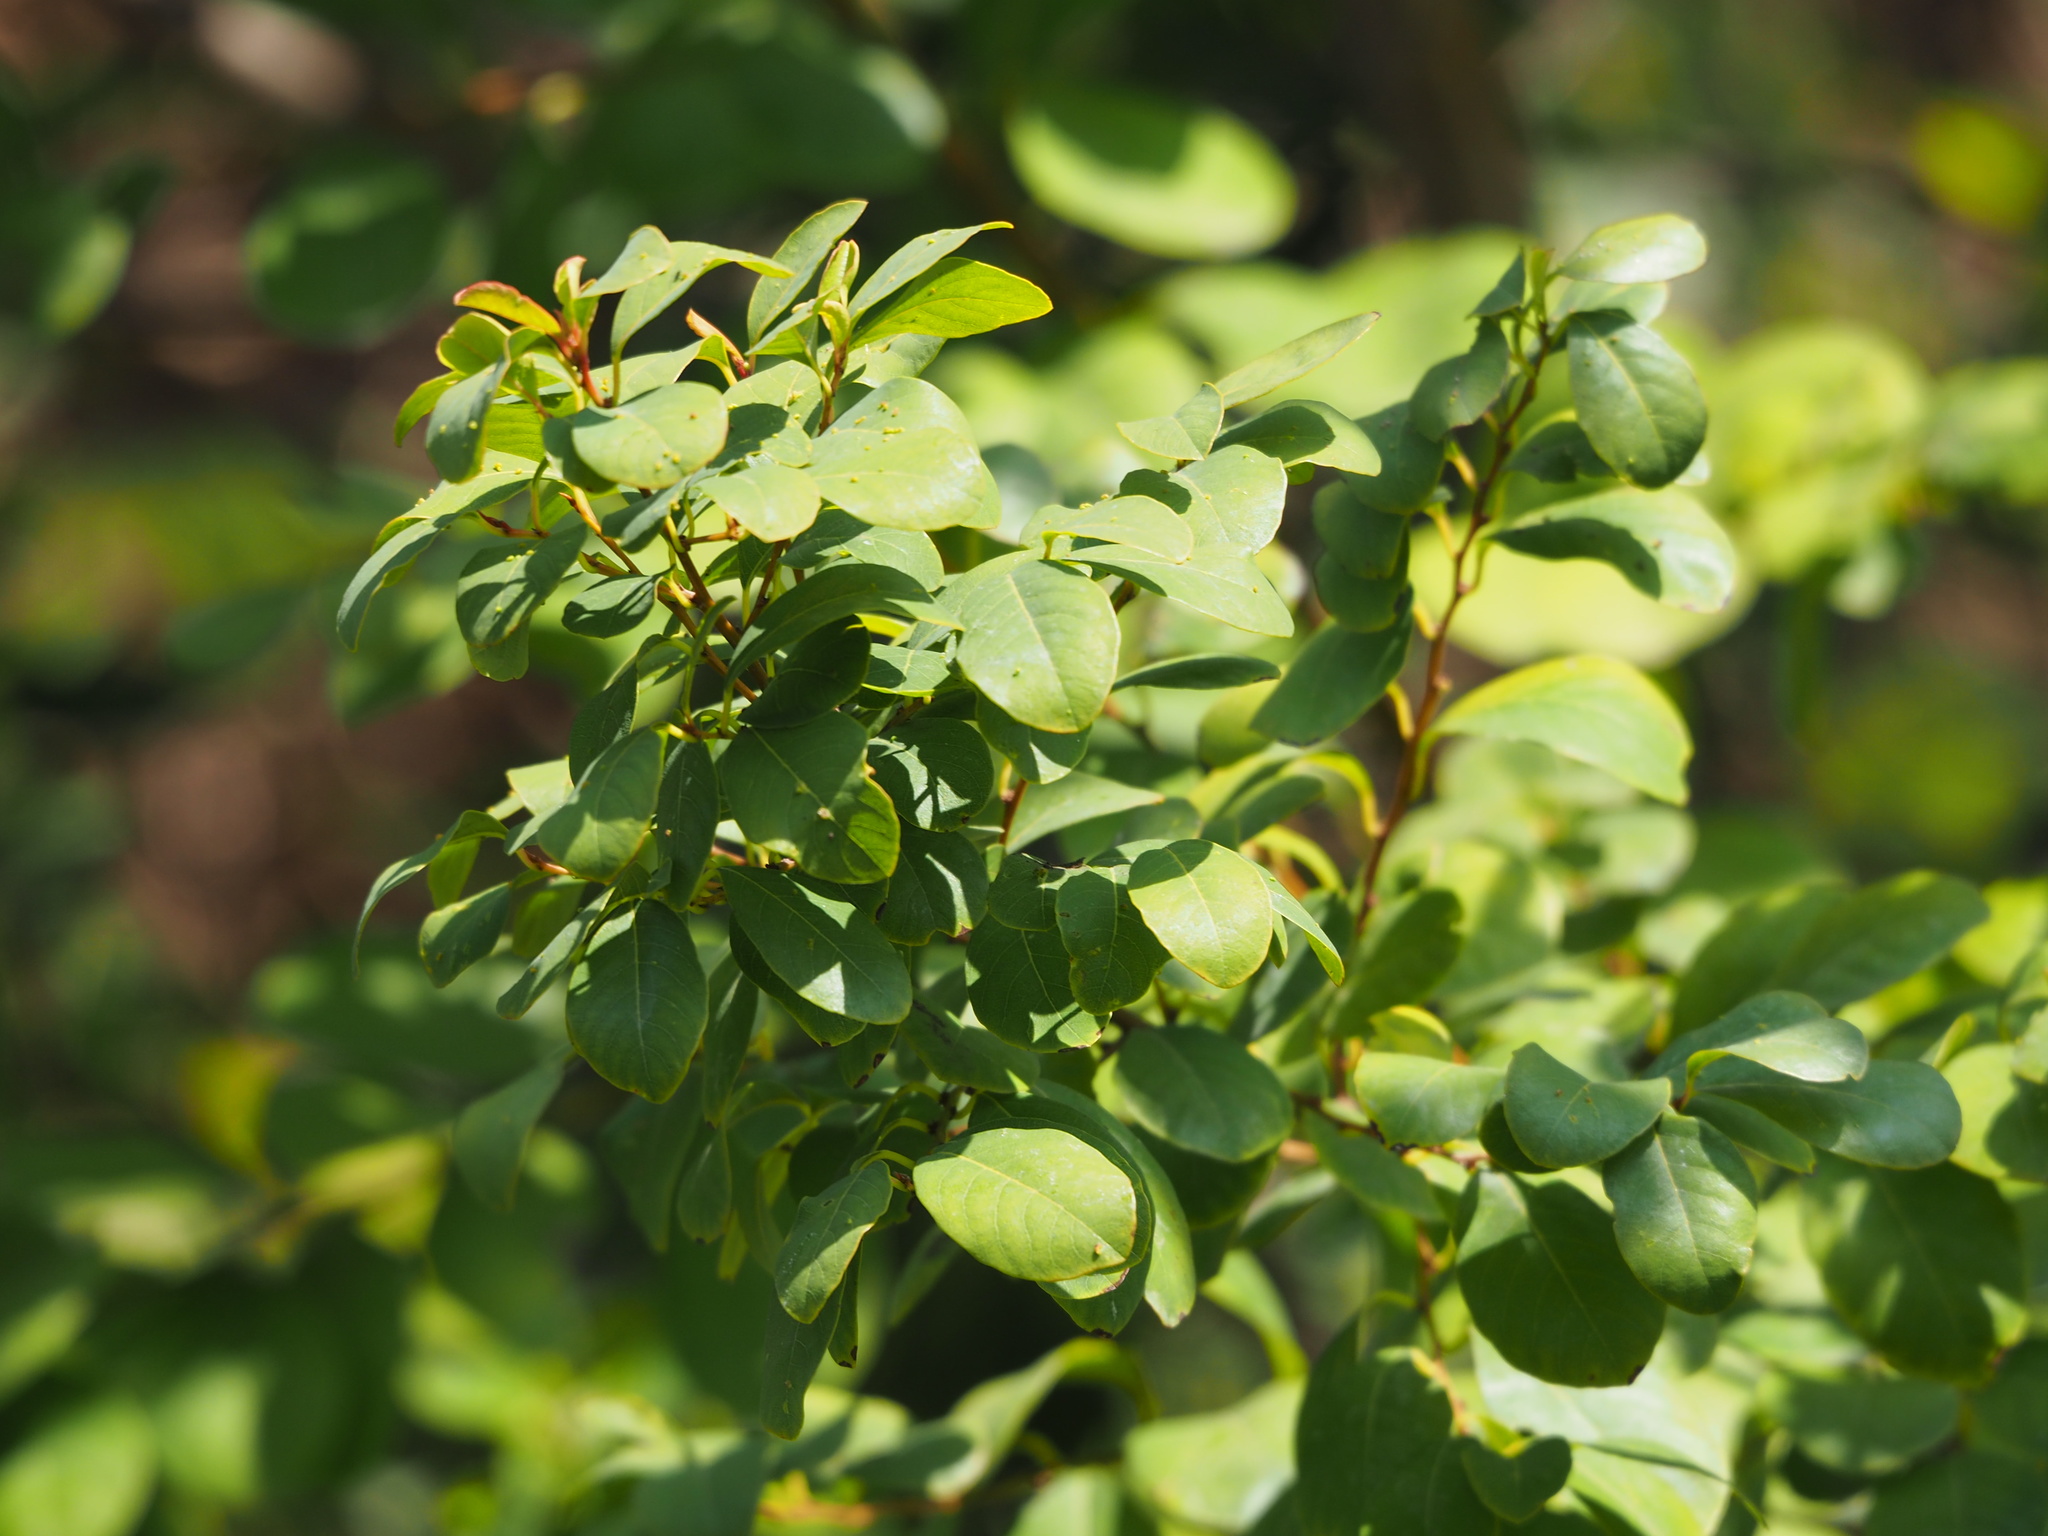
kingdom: Plantae
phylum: Tracheophyta
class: Magnoliopsida
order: Malpighiales
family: Phyllanthaceae
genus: Flueggea
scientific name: Flueggea virosa
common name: Common bushweed
